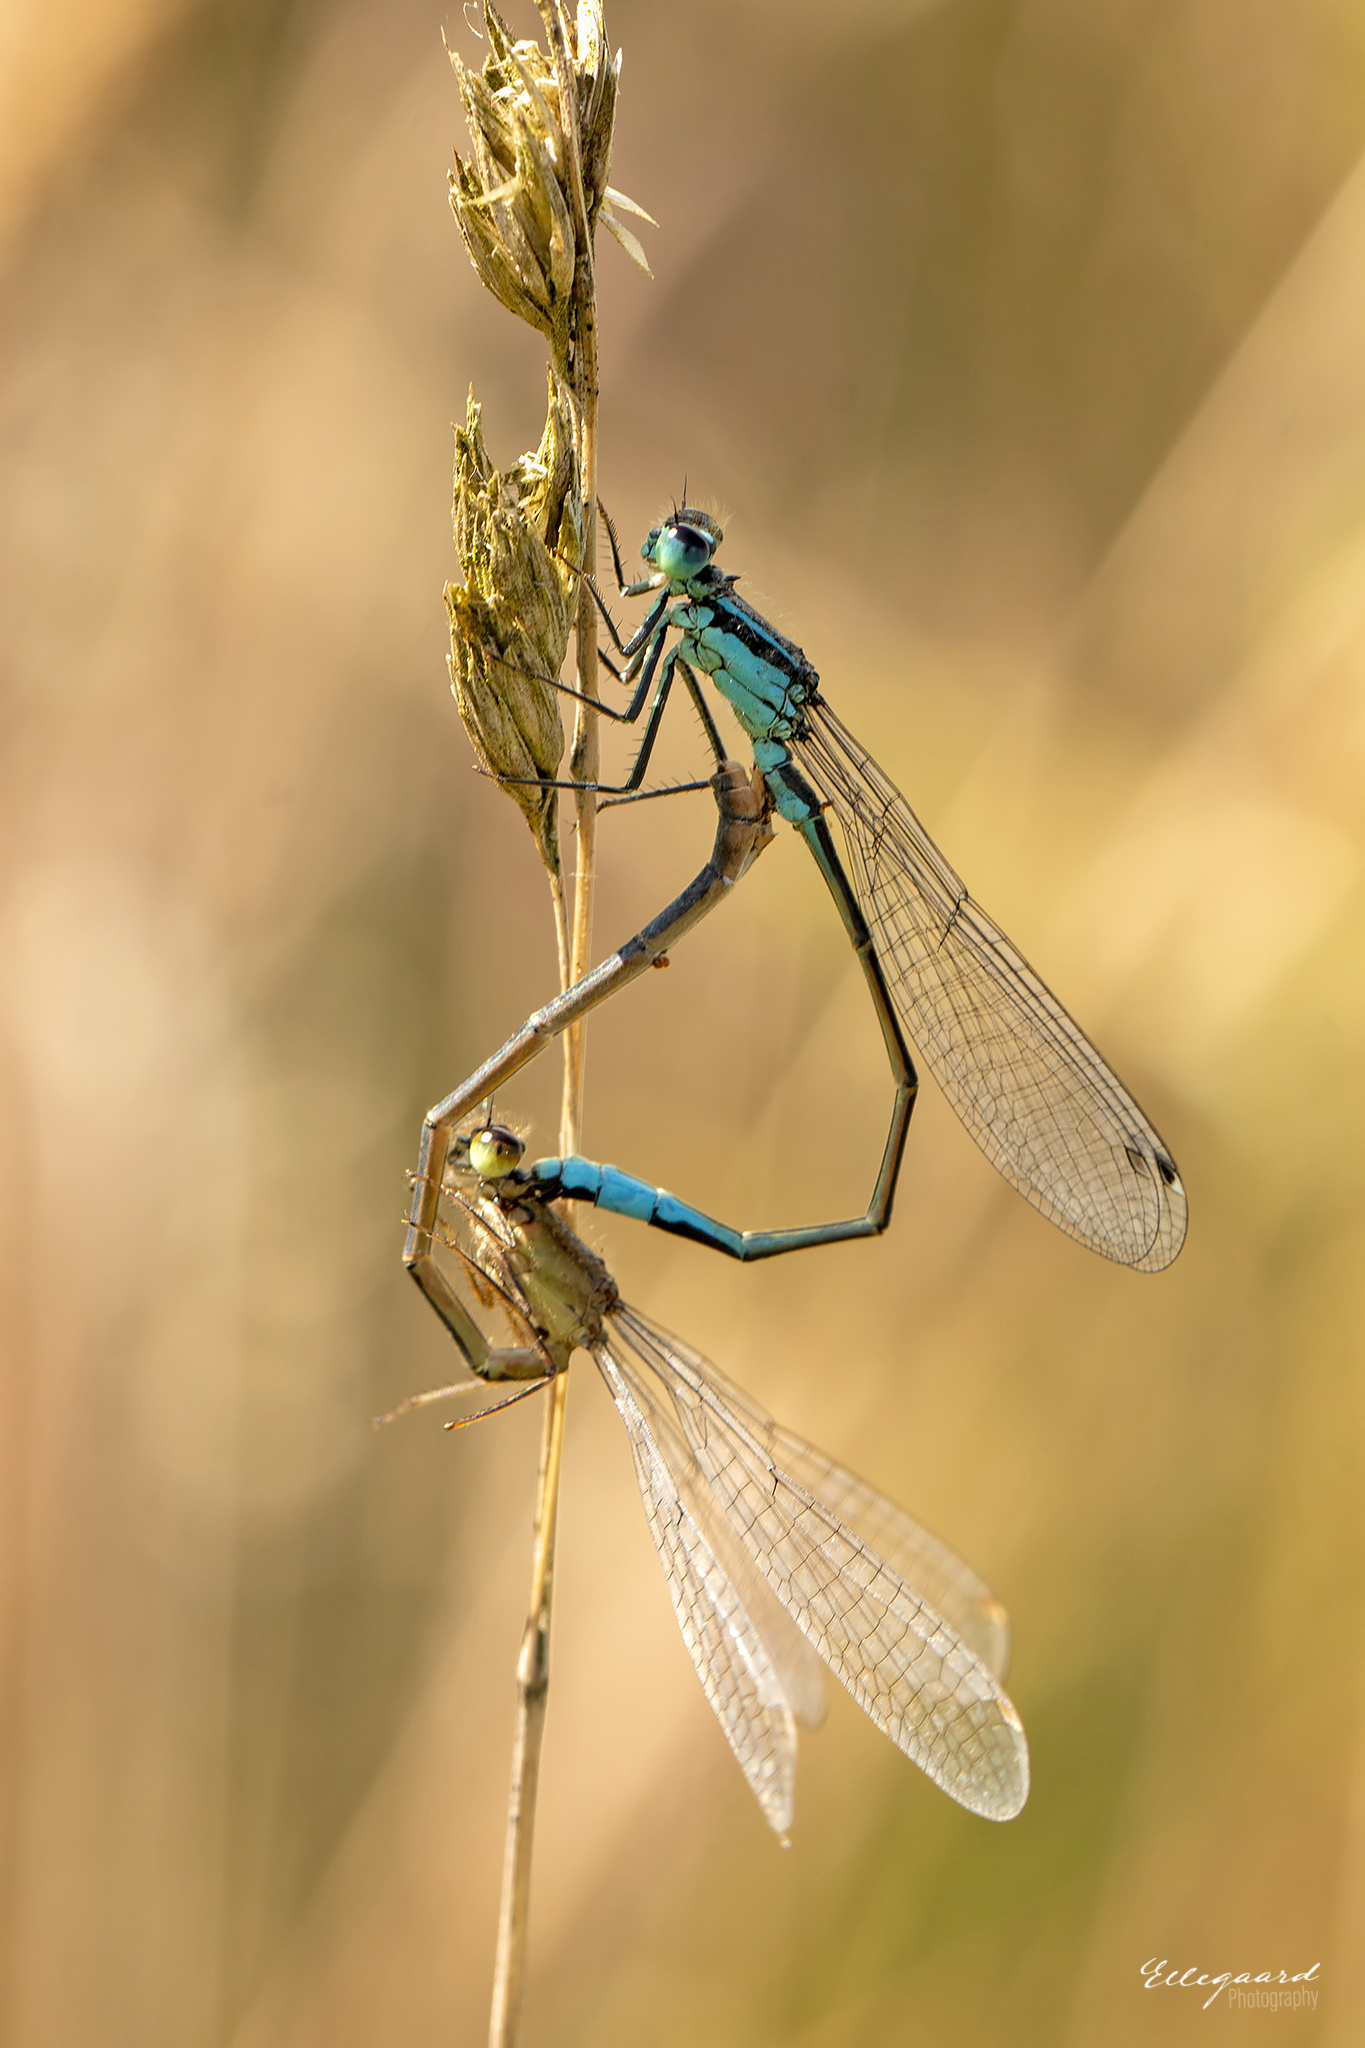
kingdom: Animalia
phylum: Arthropoda
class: Insecta
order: Odonata
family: Coenagrionidae
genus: Ischnura
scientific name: Ischnura elegans
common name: Blue-tailed damselfly
